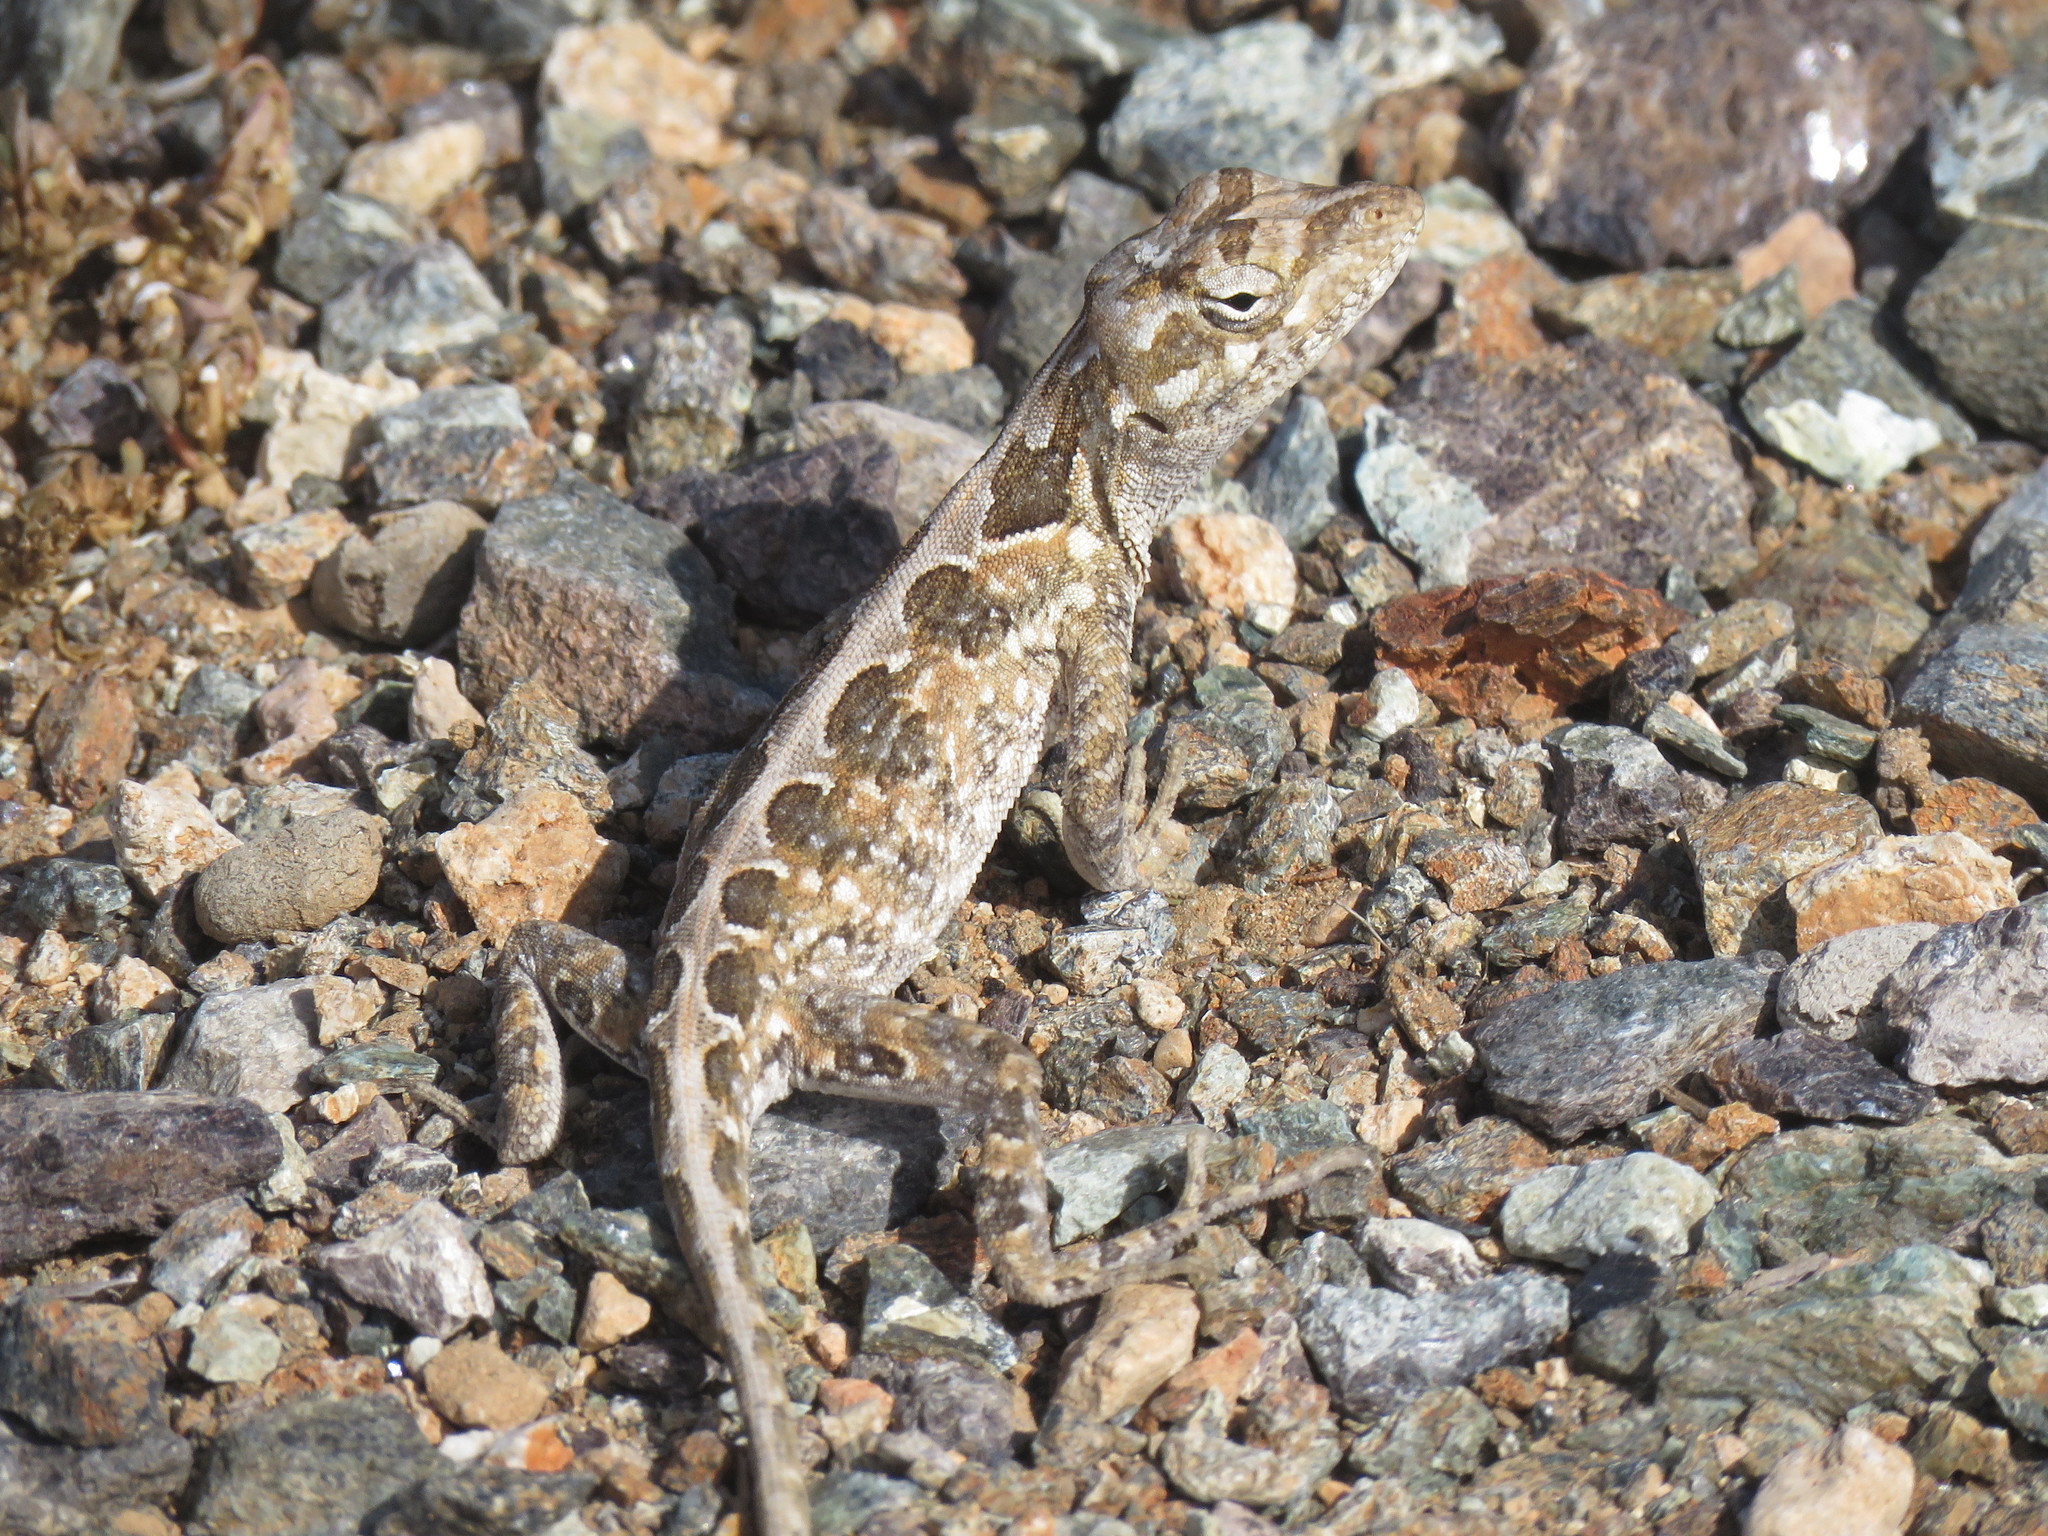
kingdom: Animalia
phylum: Chordata
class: Squamata
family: Dactyloidae
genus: Anolis
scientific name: Anolis onca
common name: Bulky anole
